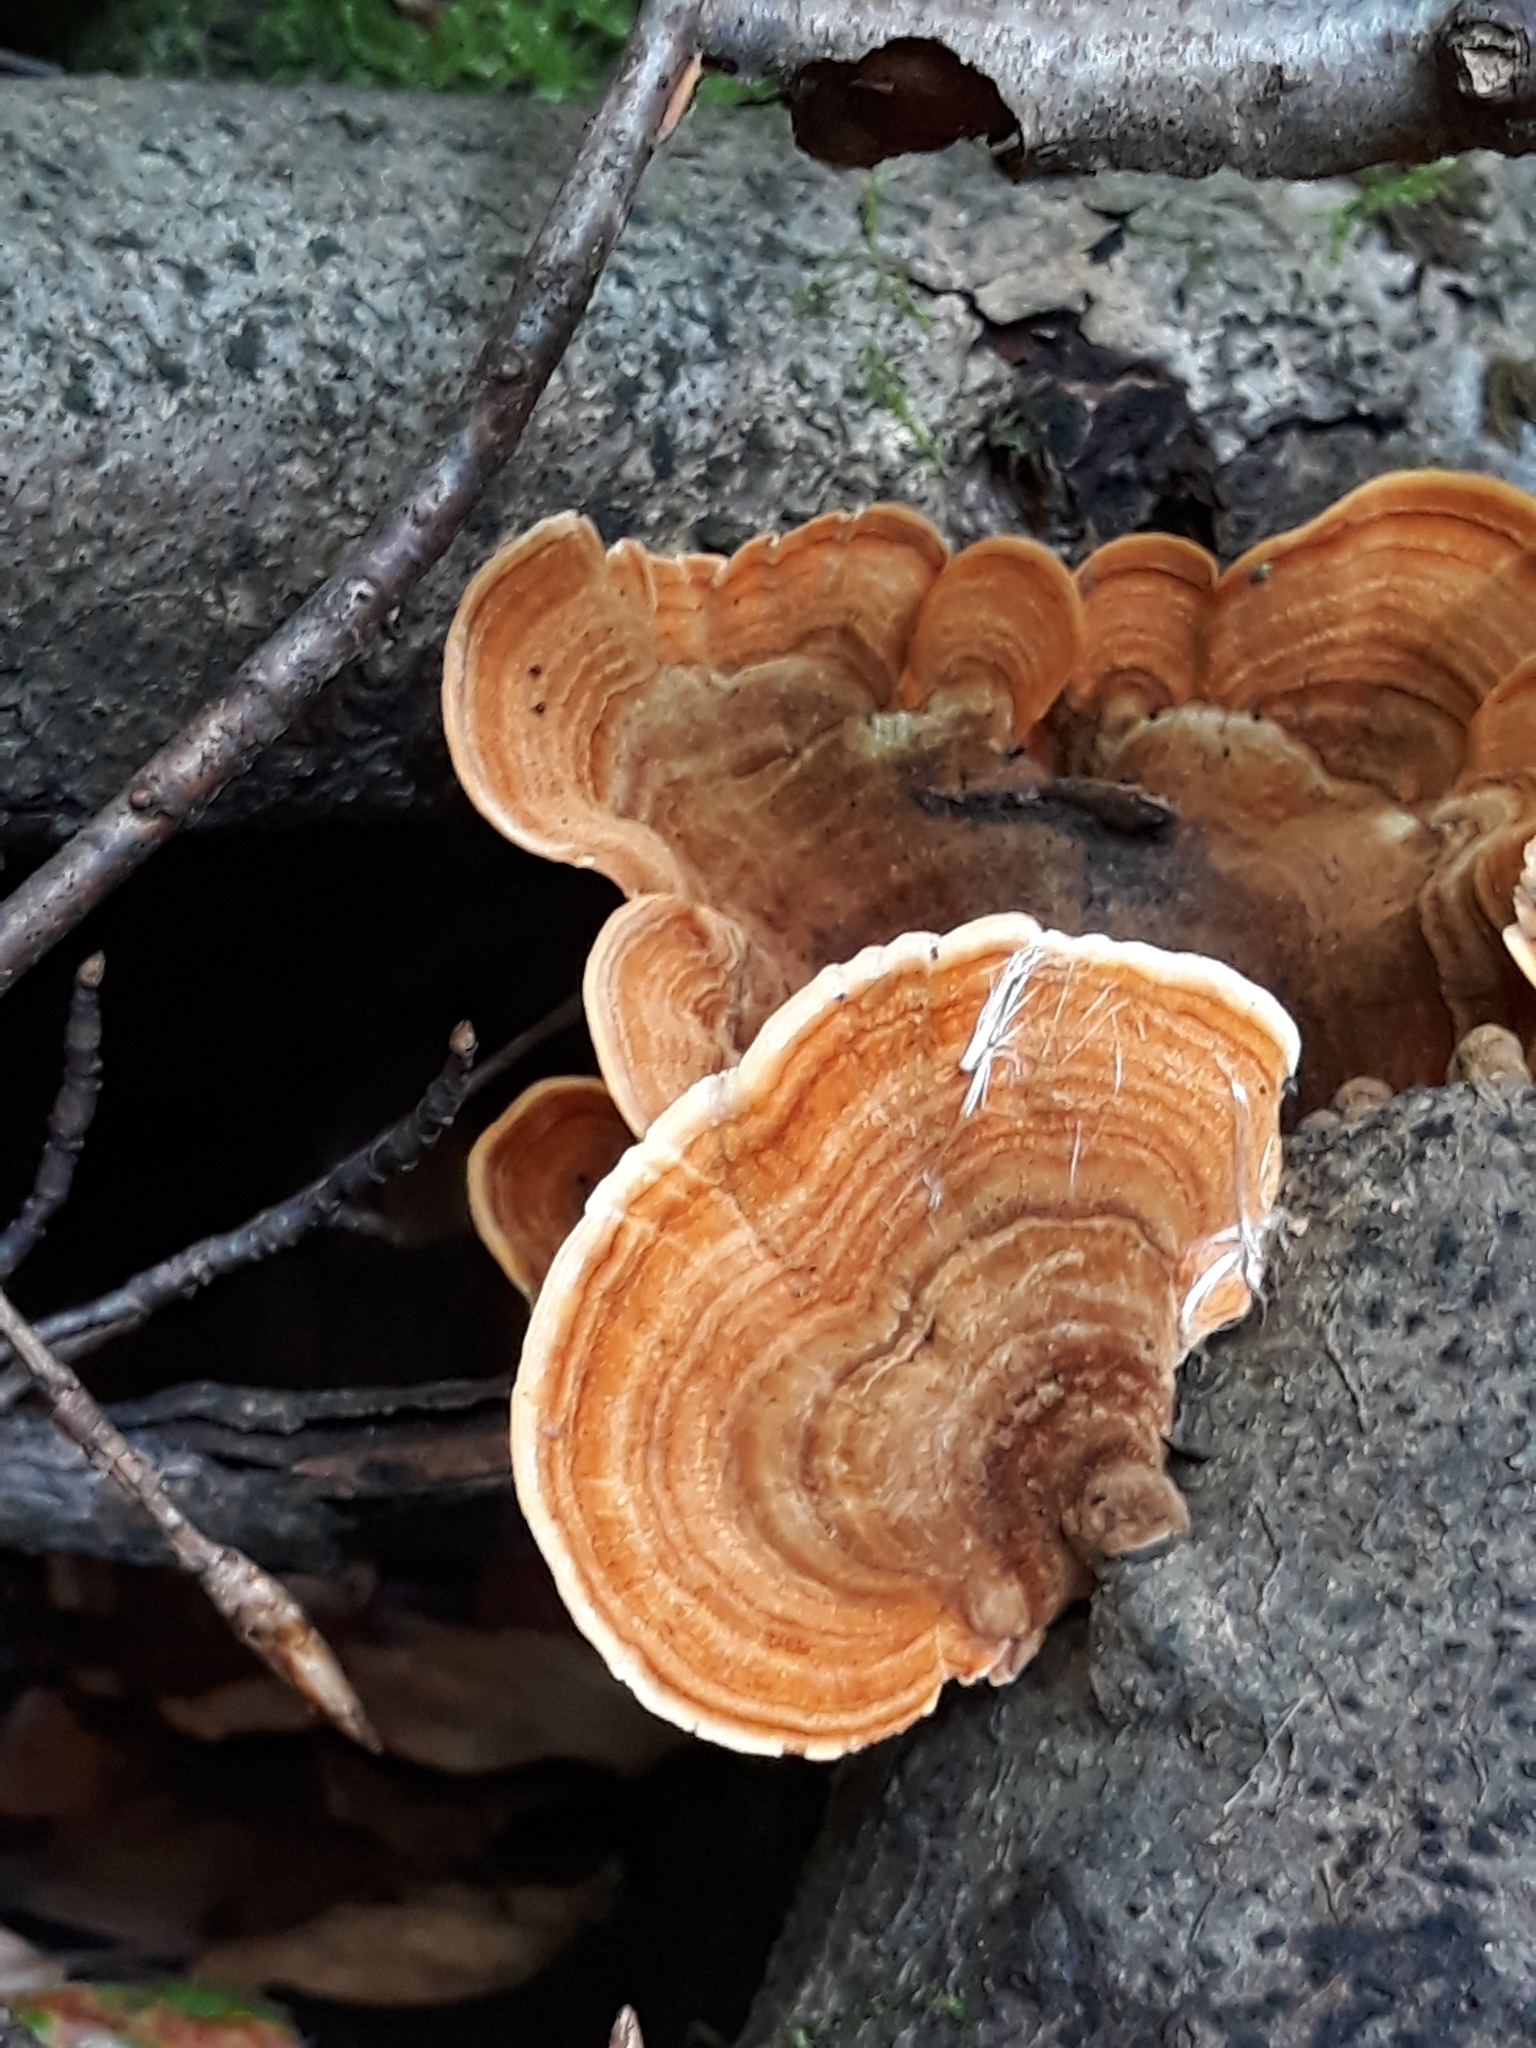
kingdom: Fungi
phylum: Basidiomycota
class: Agaricomycetes
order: Russulales
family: Stereaceae
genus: Stereum
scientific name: Stereum subtomentosum
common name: Yellowing curtain crust
